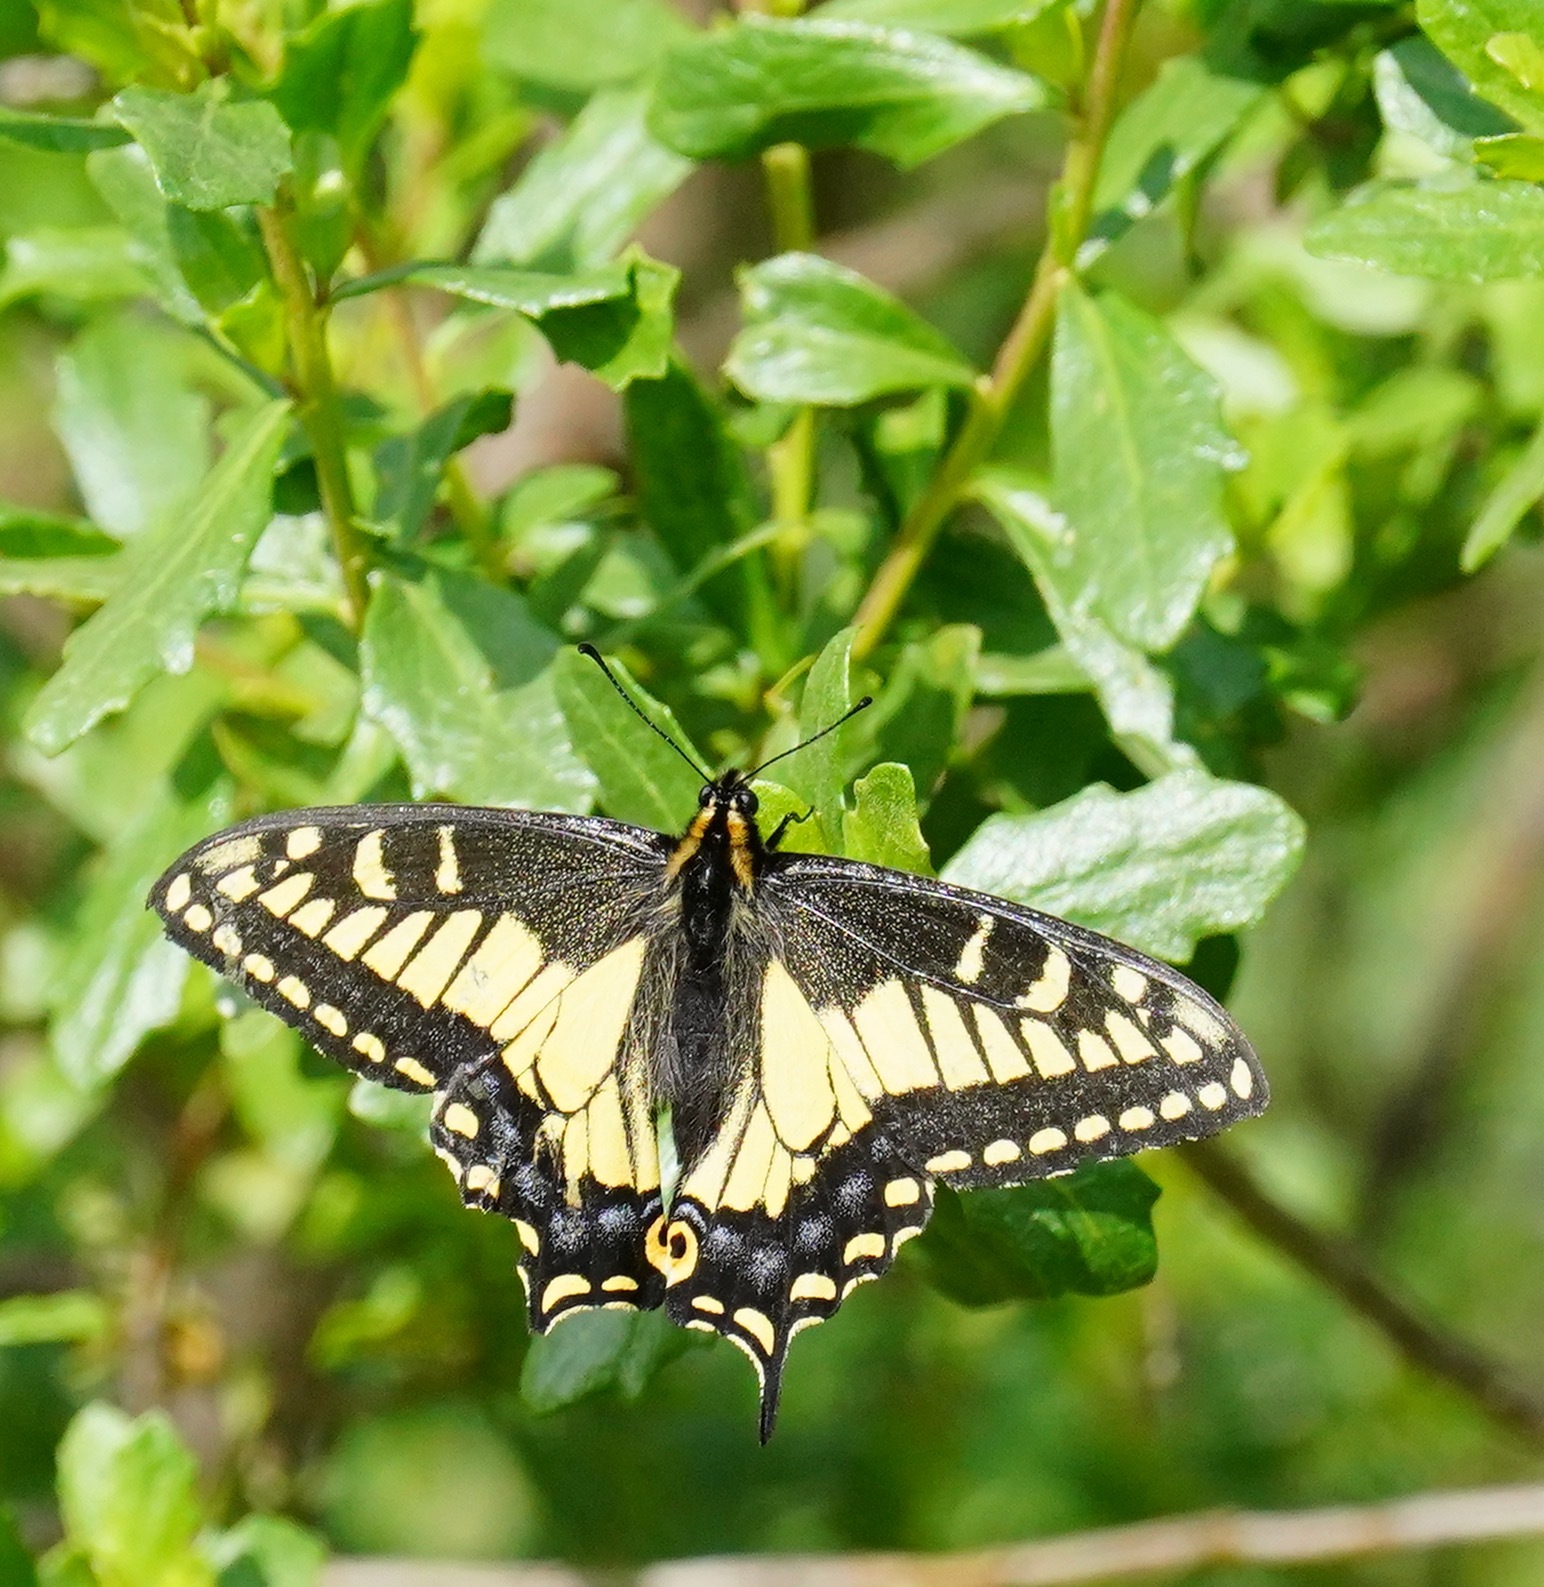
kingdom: Animalia
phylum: Arthropoda
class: Insecta
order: Lepidoptera
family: Papilionidae
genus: Papilio
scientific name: Papilio zelicaon
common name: Anise swallowtail
